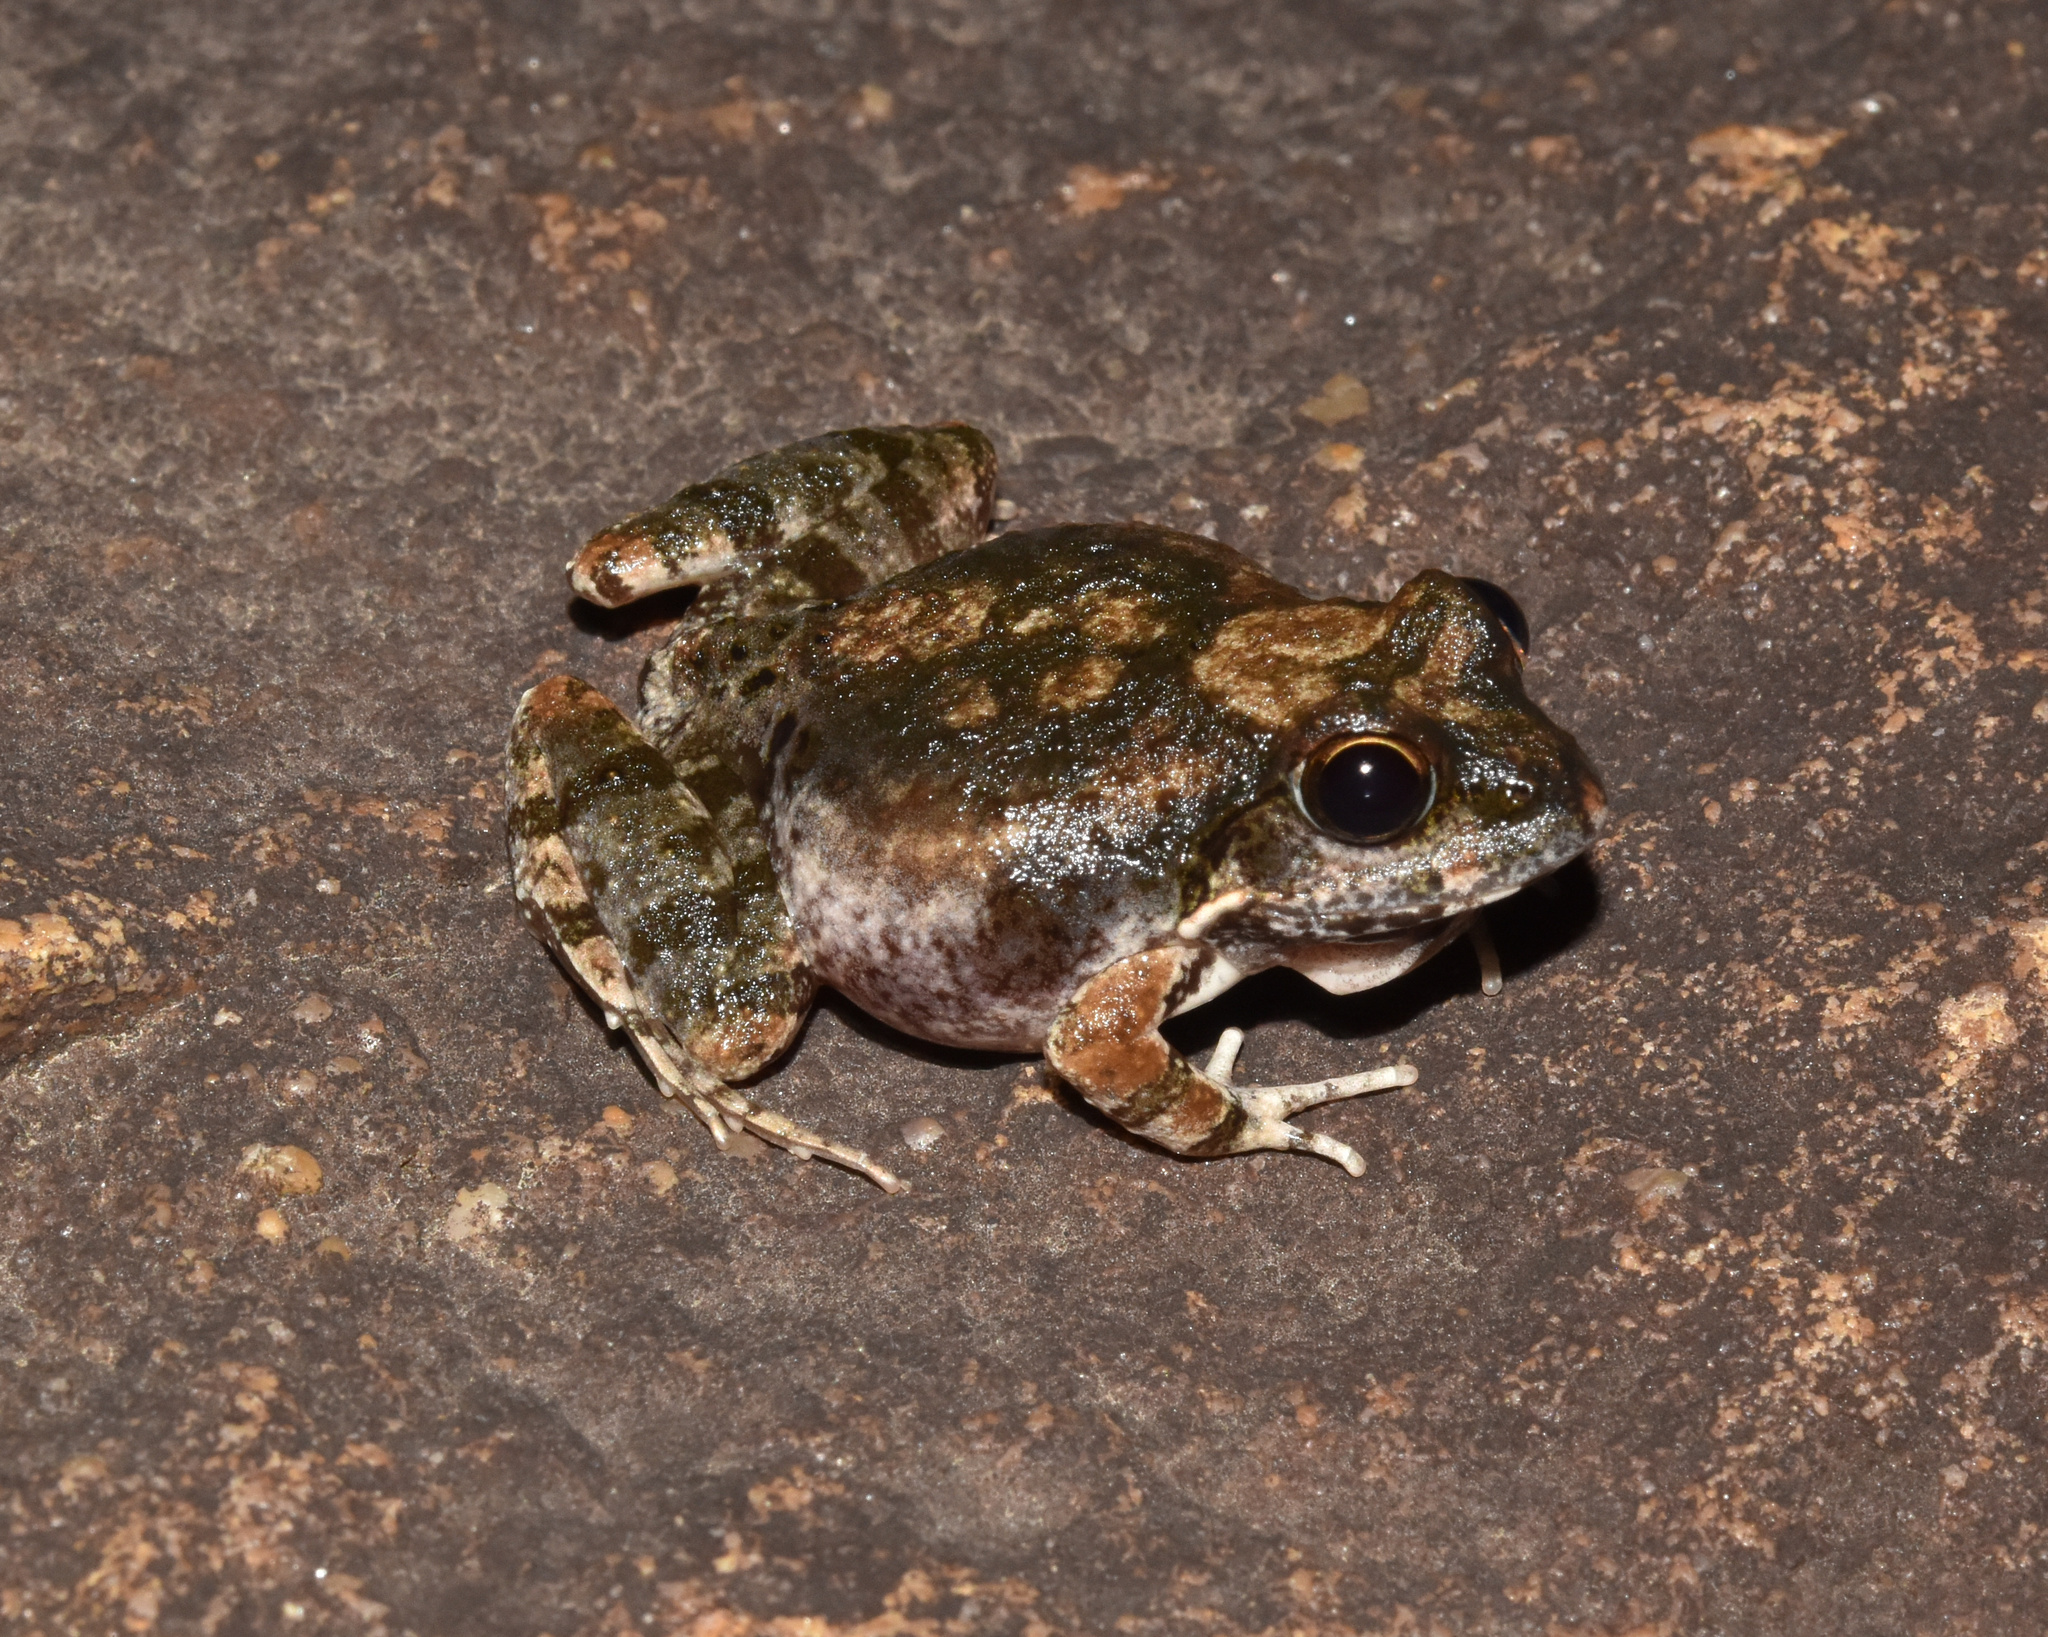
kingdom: Animalia
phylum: Chordata
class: Amphibia
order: Anura
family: Pyxicephalidae
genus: Tomopterna
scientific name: Tomopterna natalensis
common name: Natal sand frog
